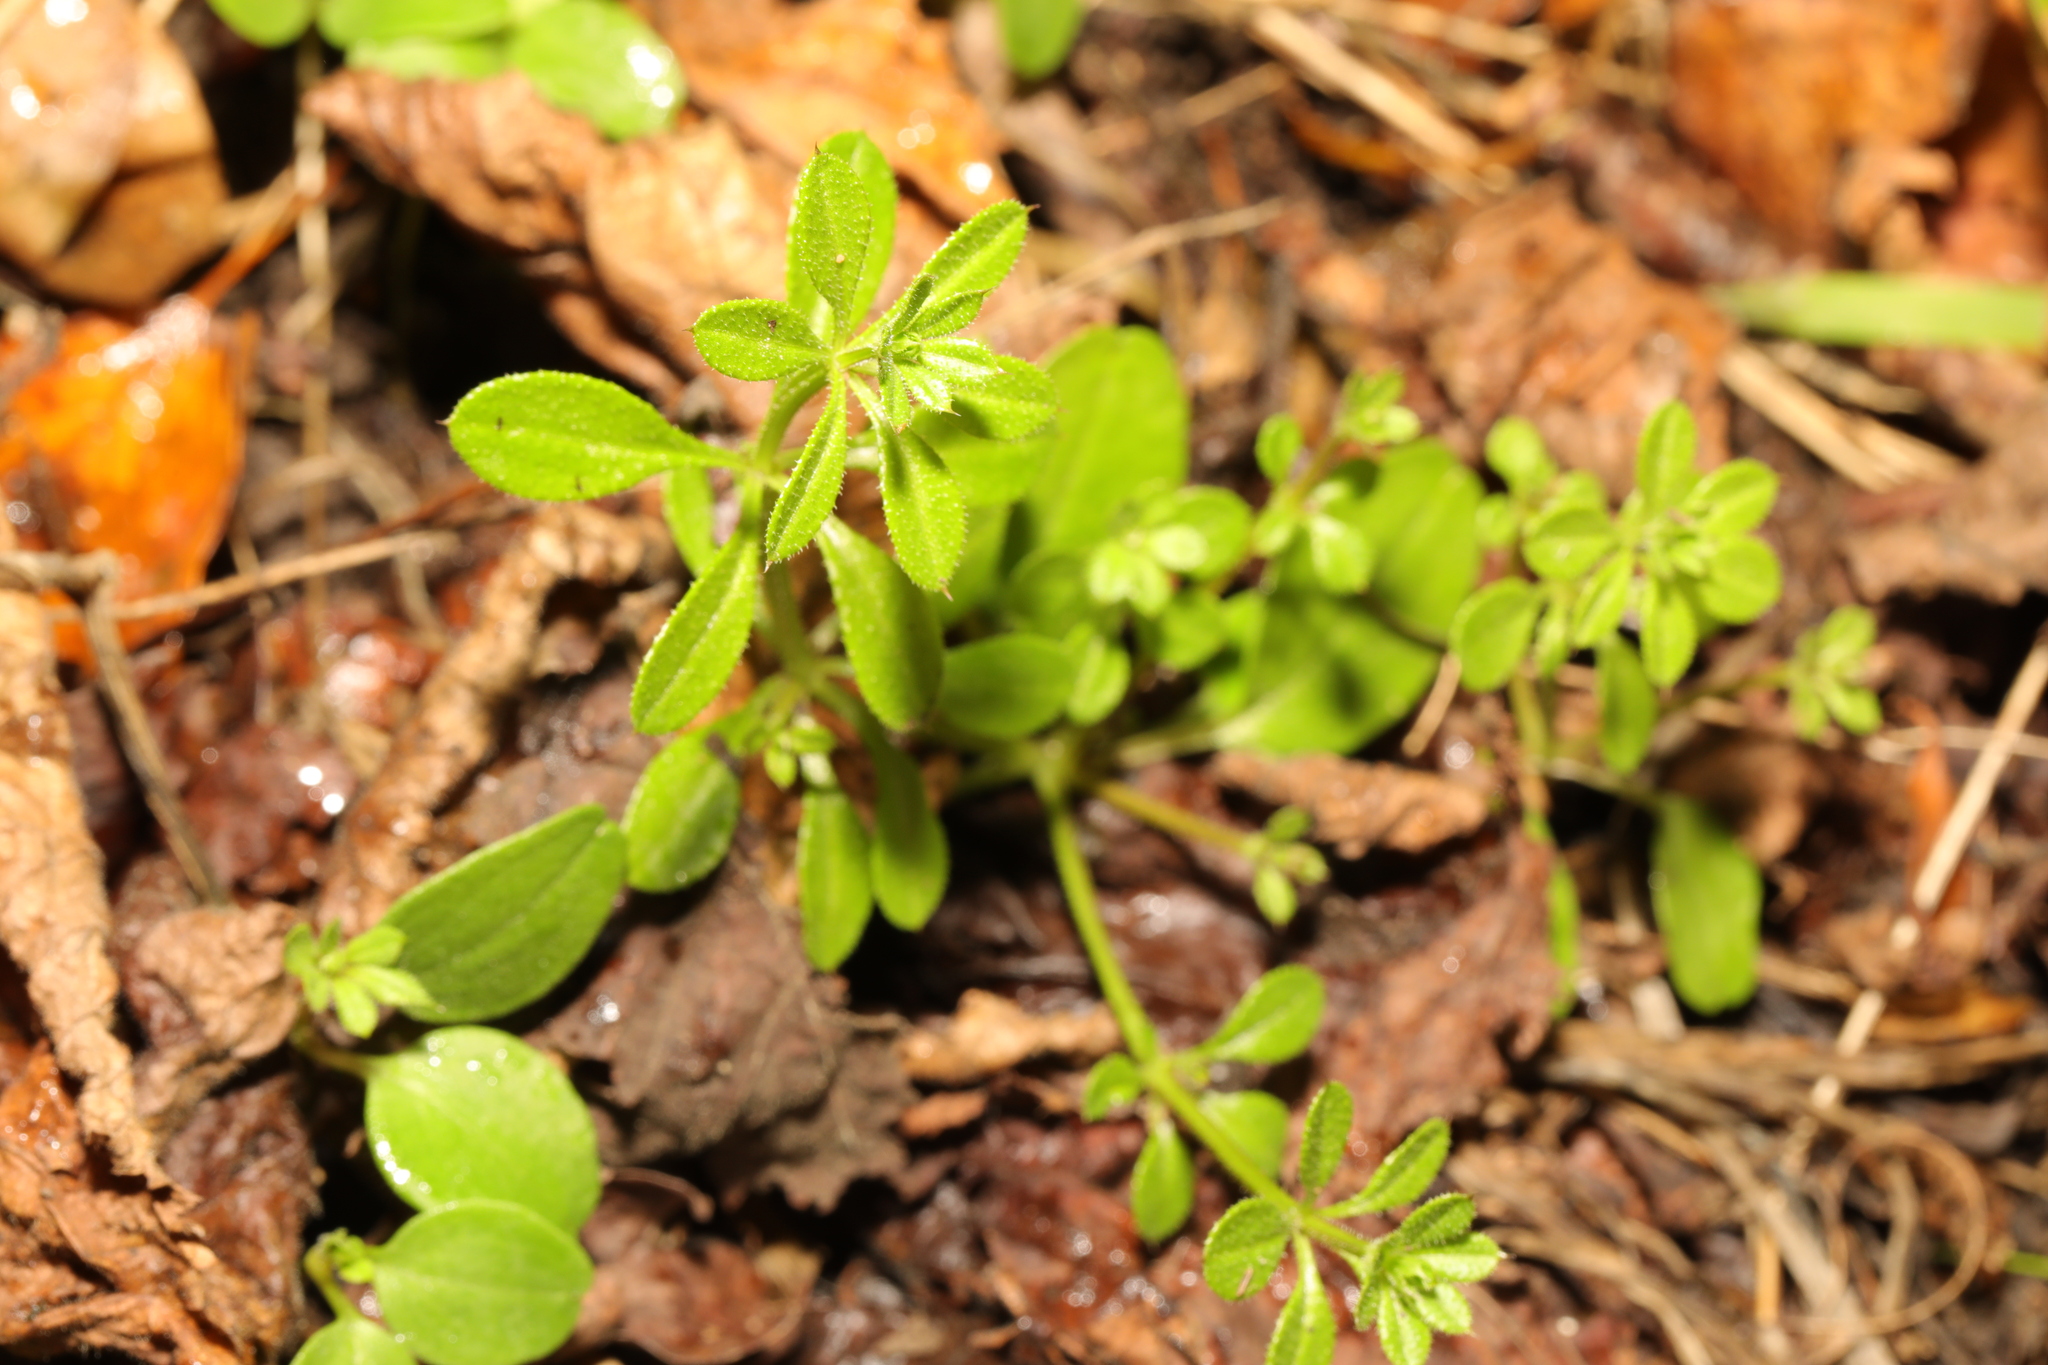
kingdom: Plantae
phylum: Tracheophyta
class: Magnoliopsida
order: Gentianales
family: Rubiaceae
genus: Galium
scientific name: Galium aparine
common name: Cleavers
